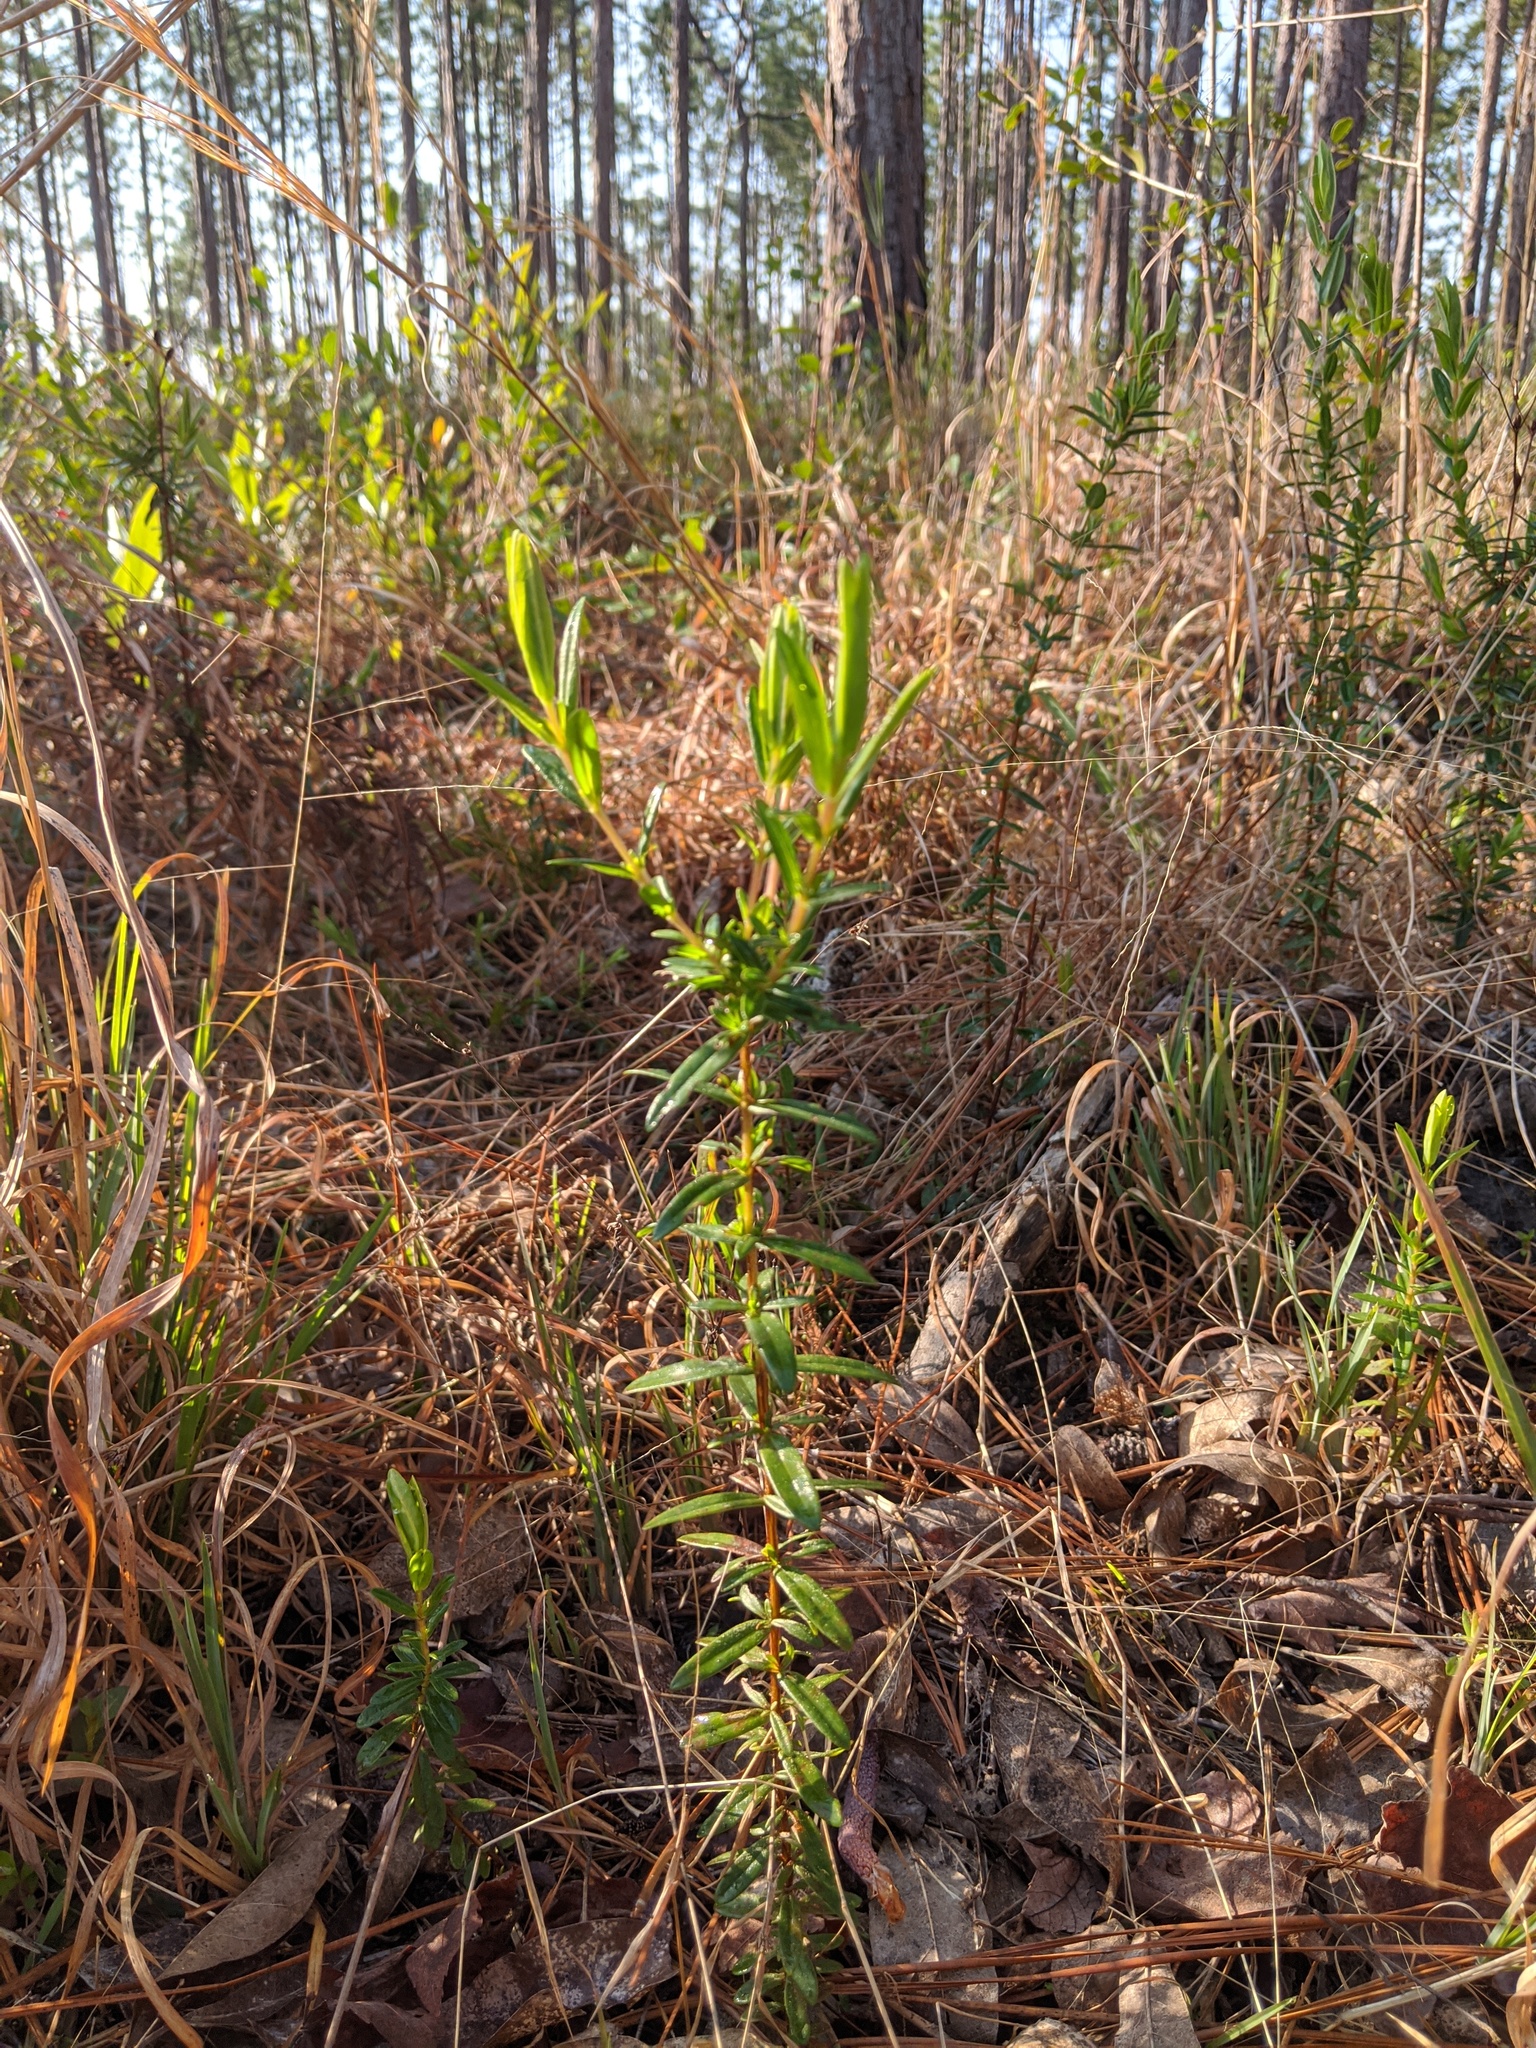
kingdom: Plantae
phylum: Tracheophyta
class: Magnoliopsida
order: Malpighiales
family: Hypericaceae
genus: Hypericum
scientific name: Hypericum cistifolium
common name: Round-pod st. john's-wort
